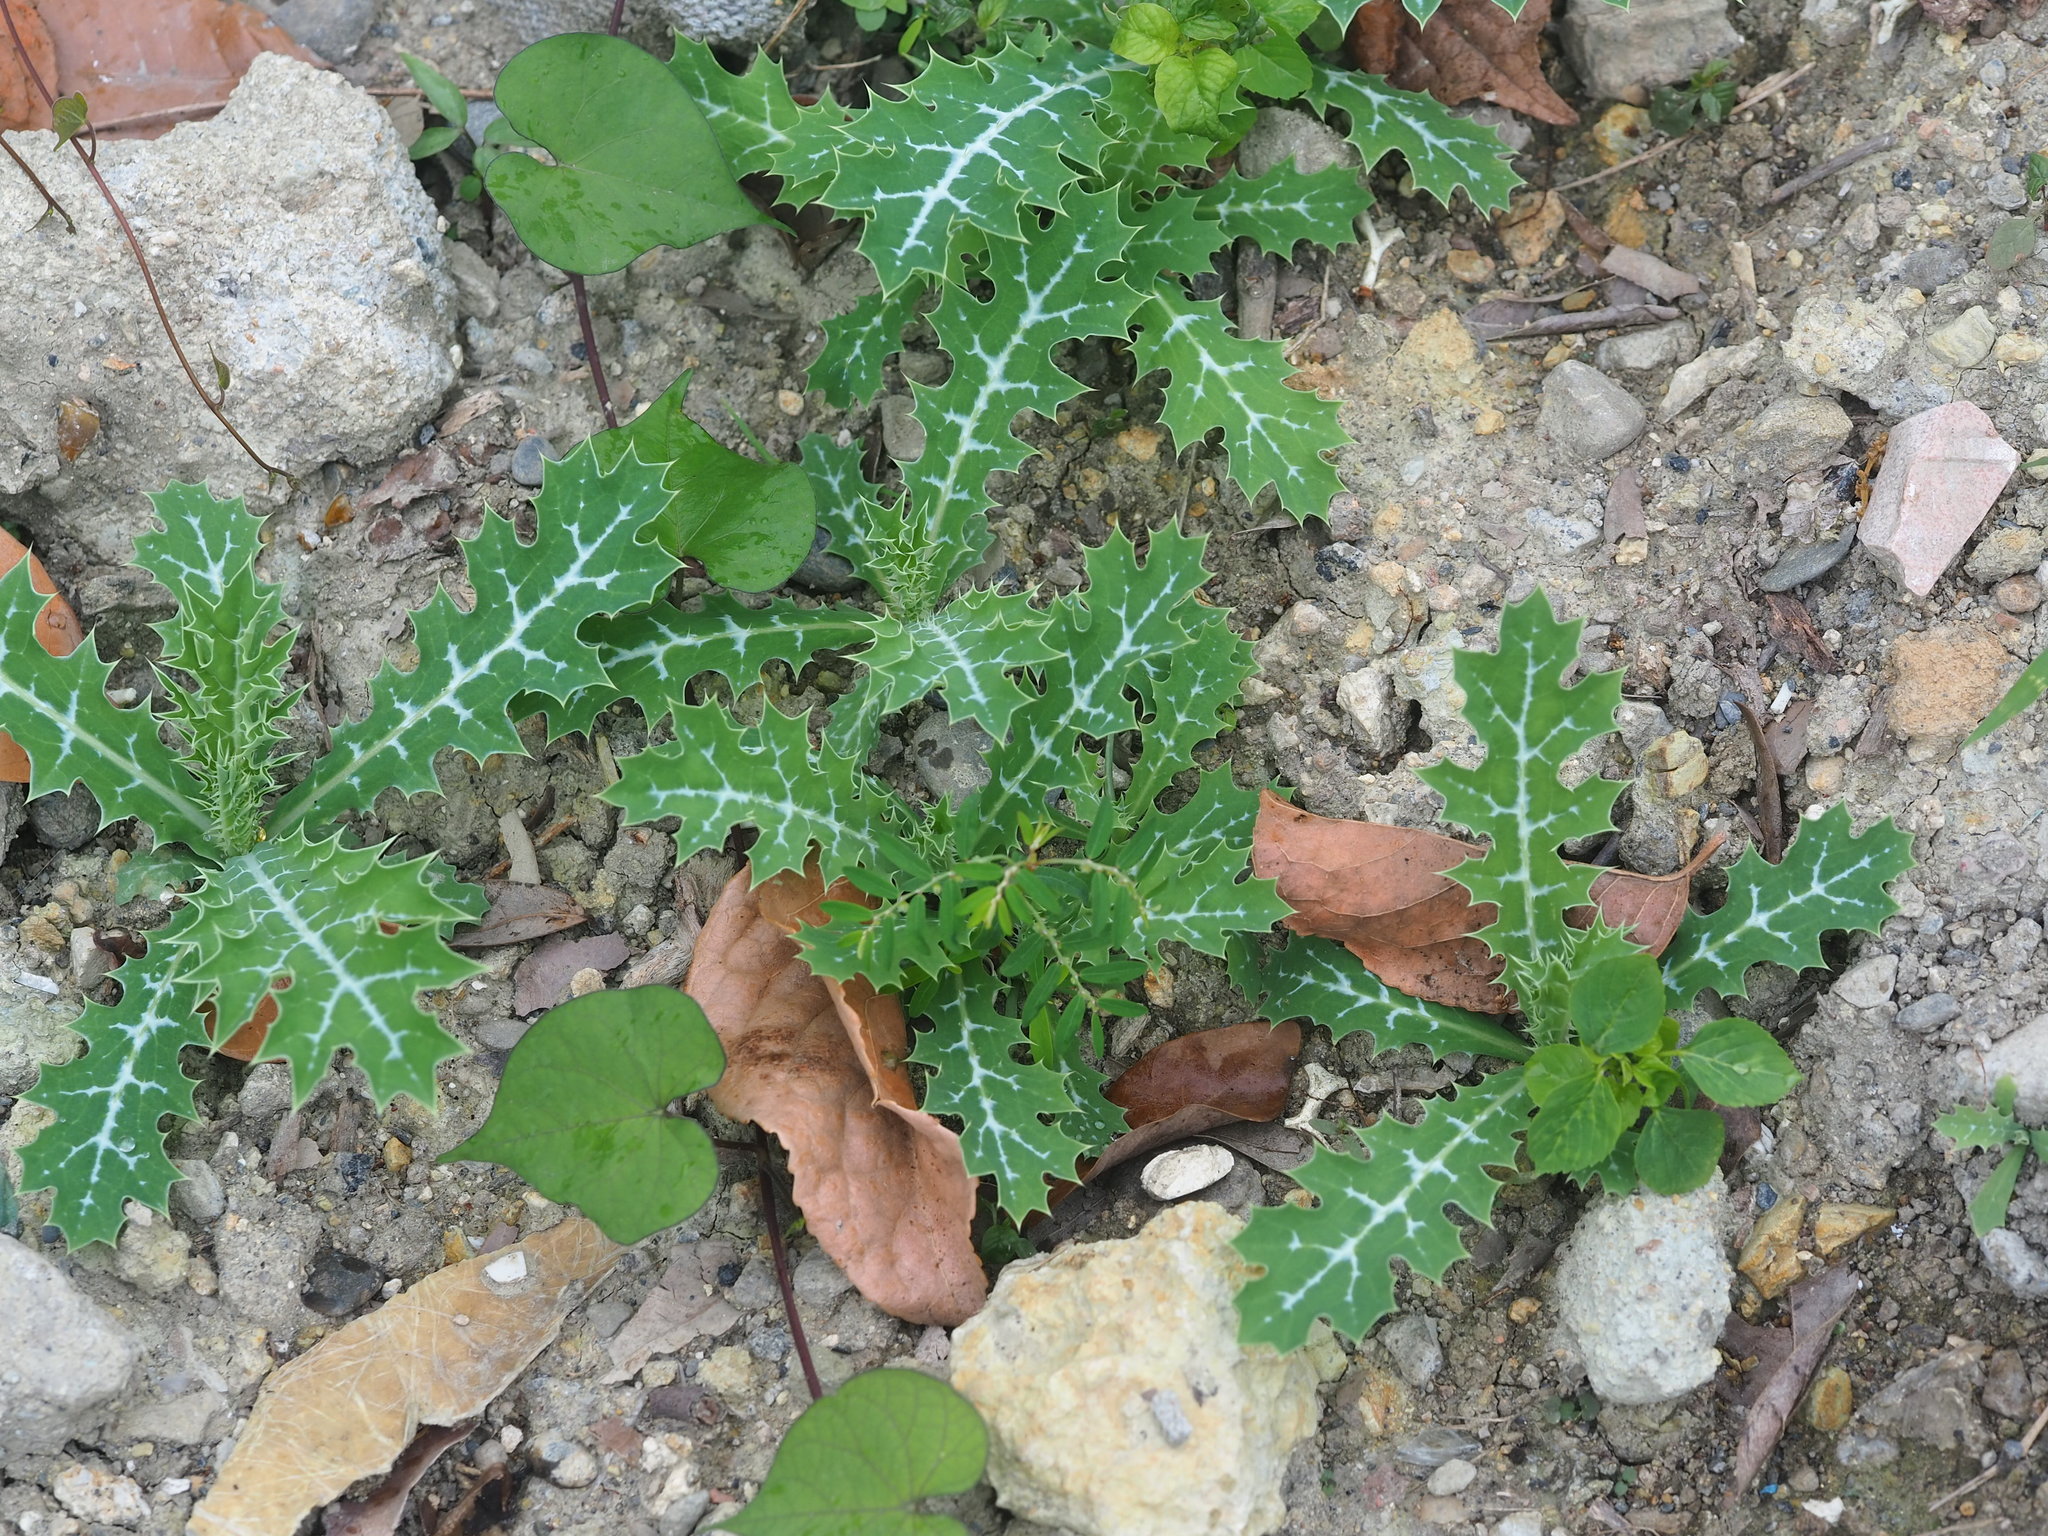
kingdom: Plantae
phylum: Tracheophyta
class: Magnoliopsida
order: Ranunculales
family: Papaveraceae
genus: Argemone
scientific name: Argemone mexicana
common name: Mexican poppy
